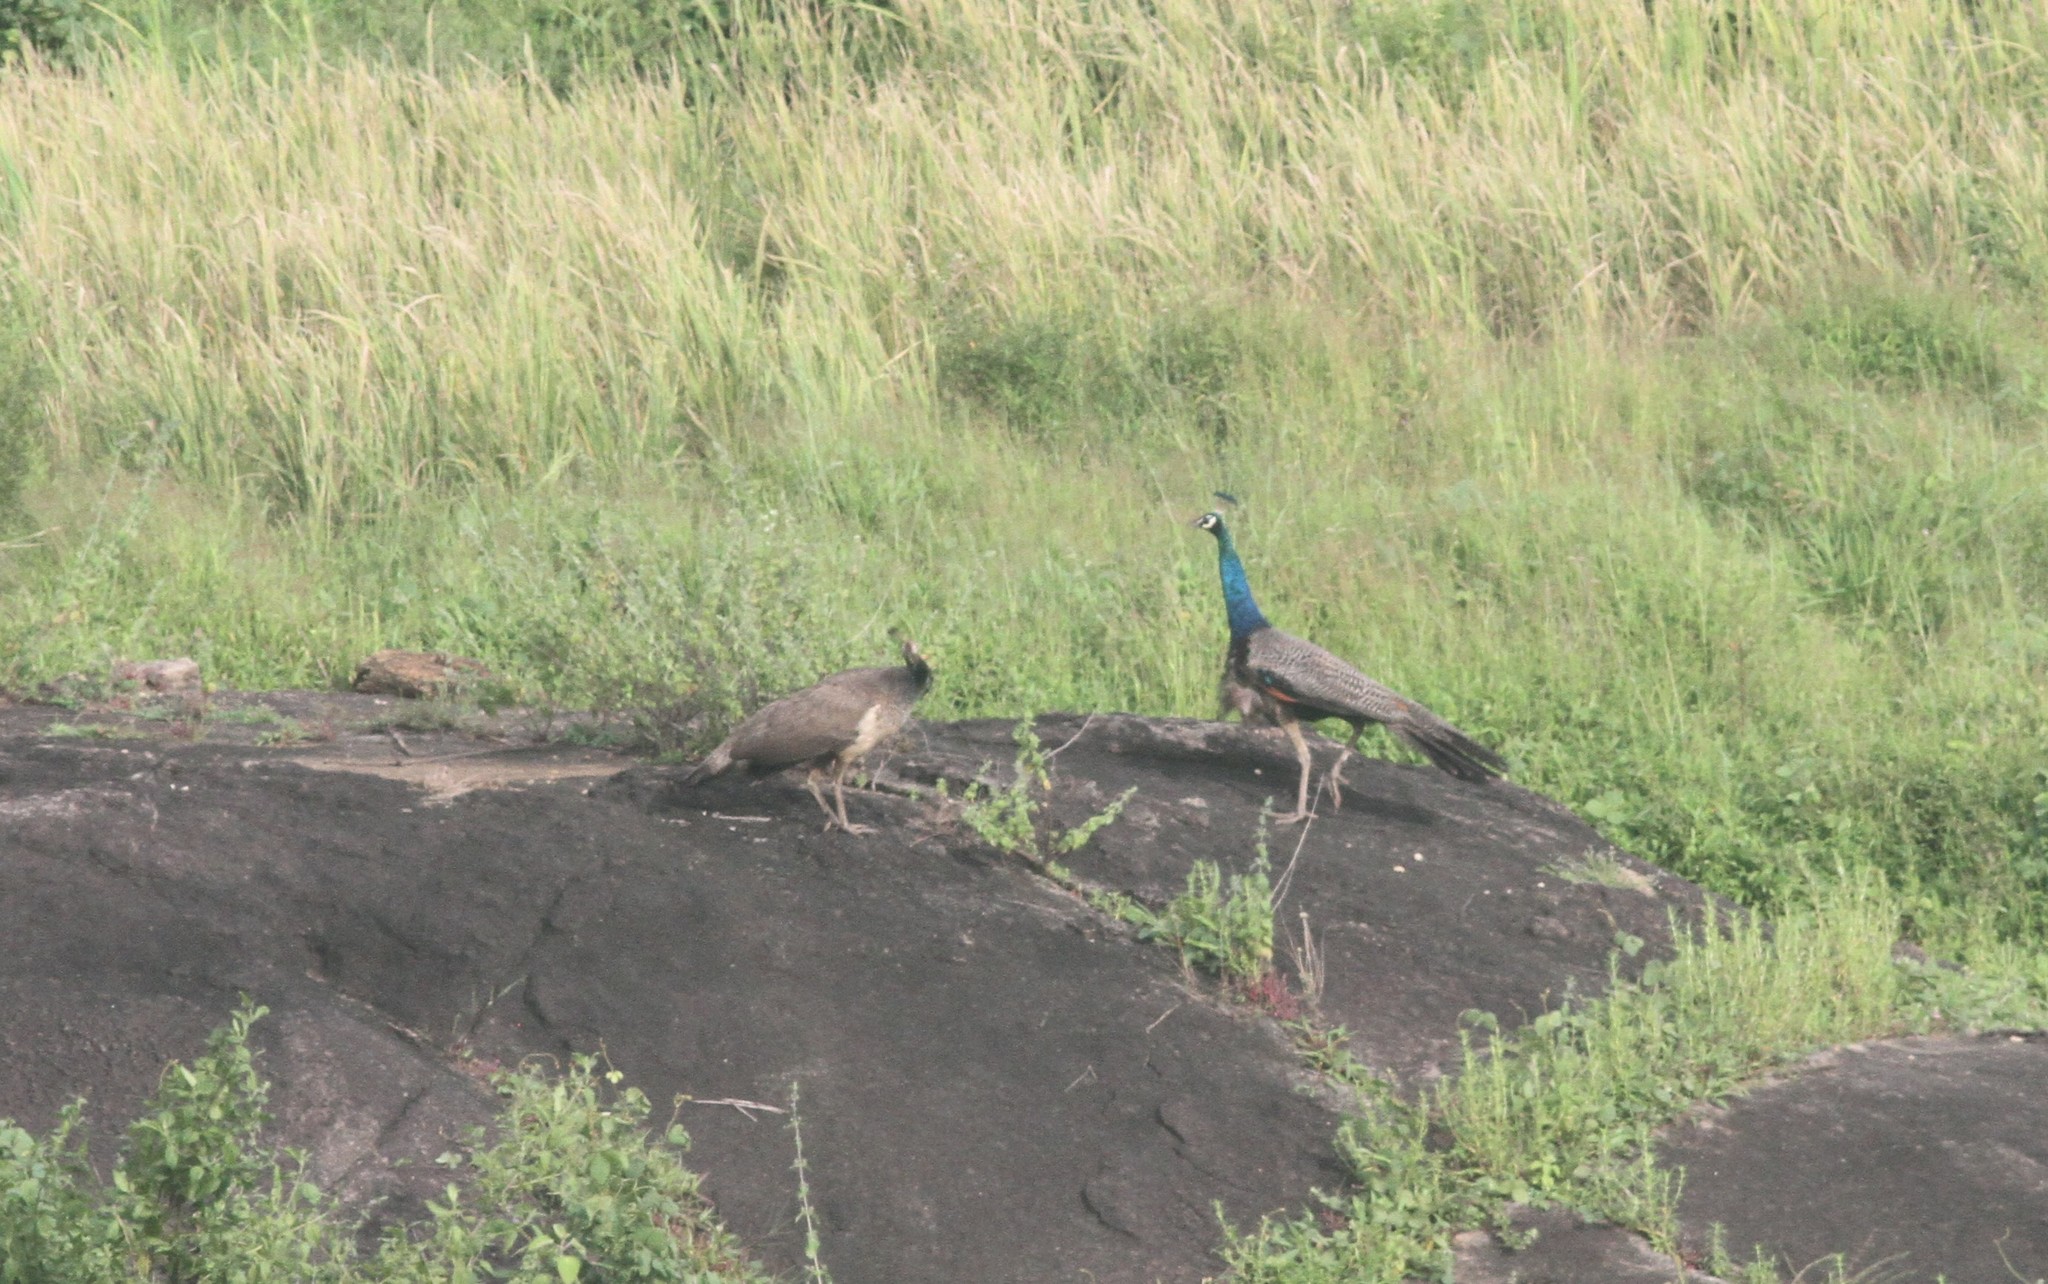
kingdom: Animalia
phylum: Chordata
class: Aves
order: Galliformes
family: Phasianidae
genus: Pavo
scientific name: Pavo cristatus
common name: Indian peafowl
